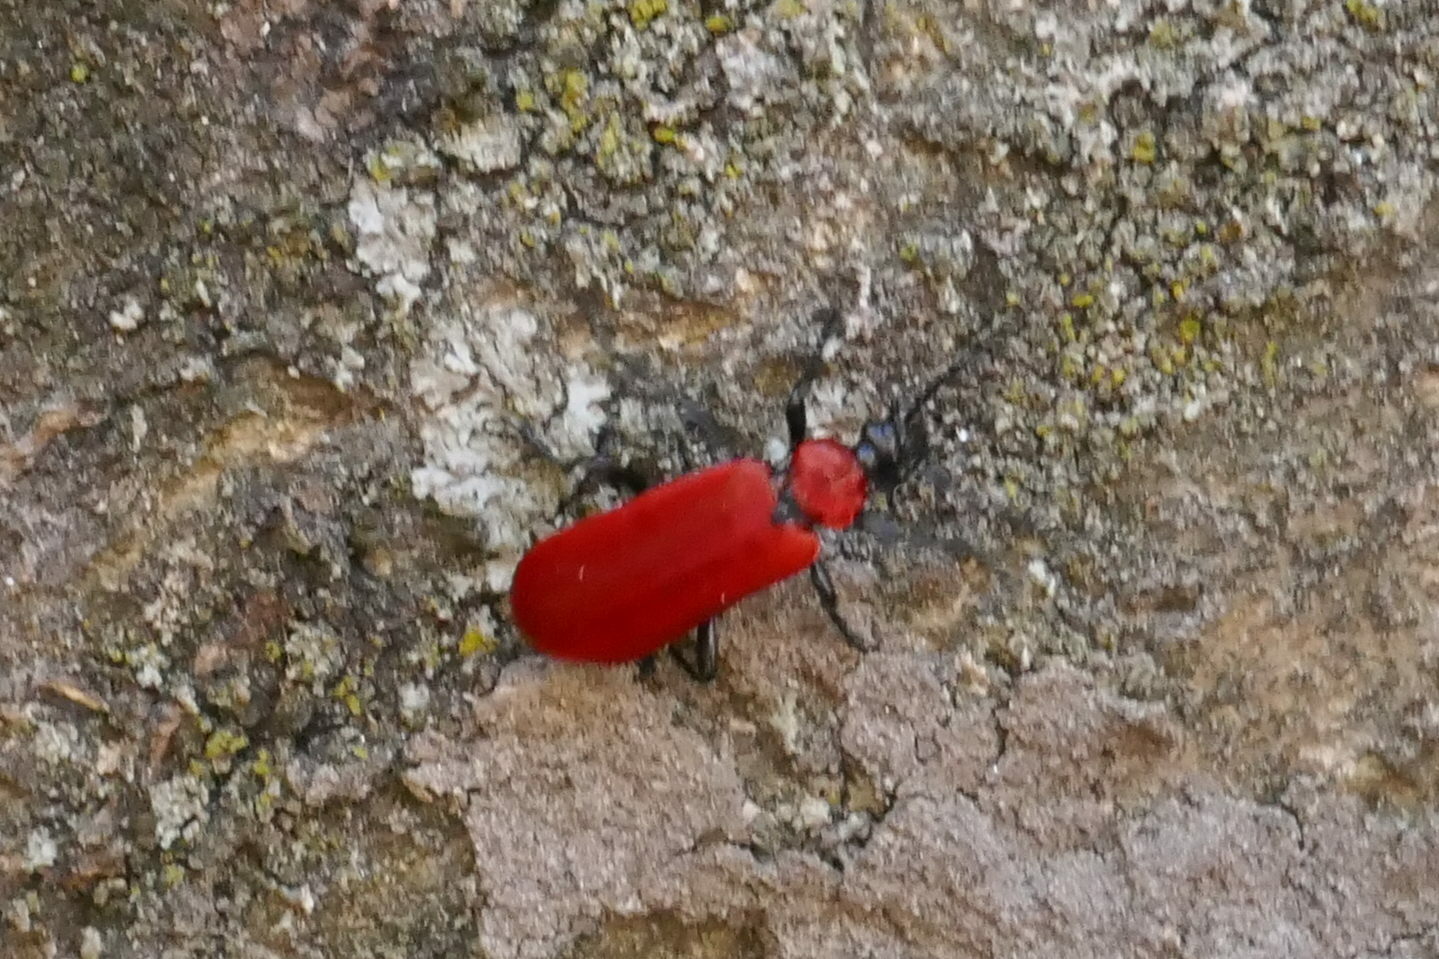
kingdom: Animalia
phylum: Arthropoda
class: Insecta
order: Coleoptera
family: Pyrochroidae
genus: Pyrochroa
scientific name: Pyrochroa coccinea
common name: Black-headed cardinal beetle
